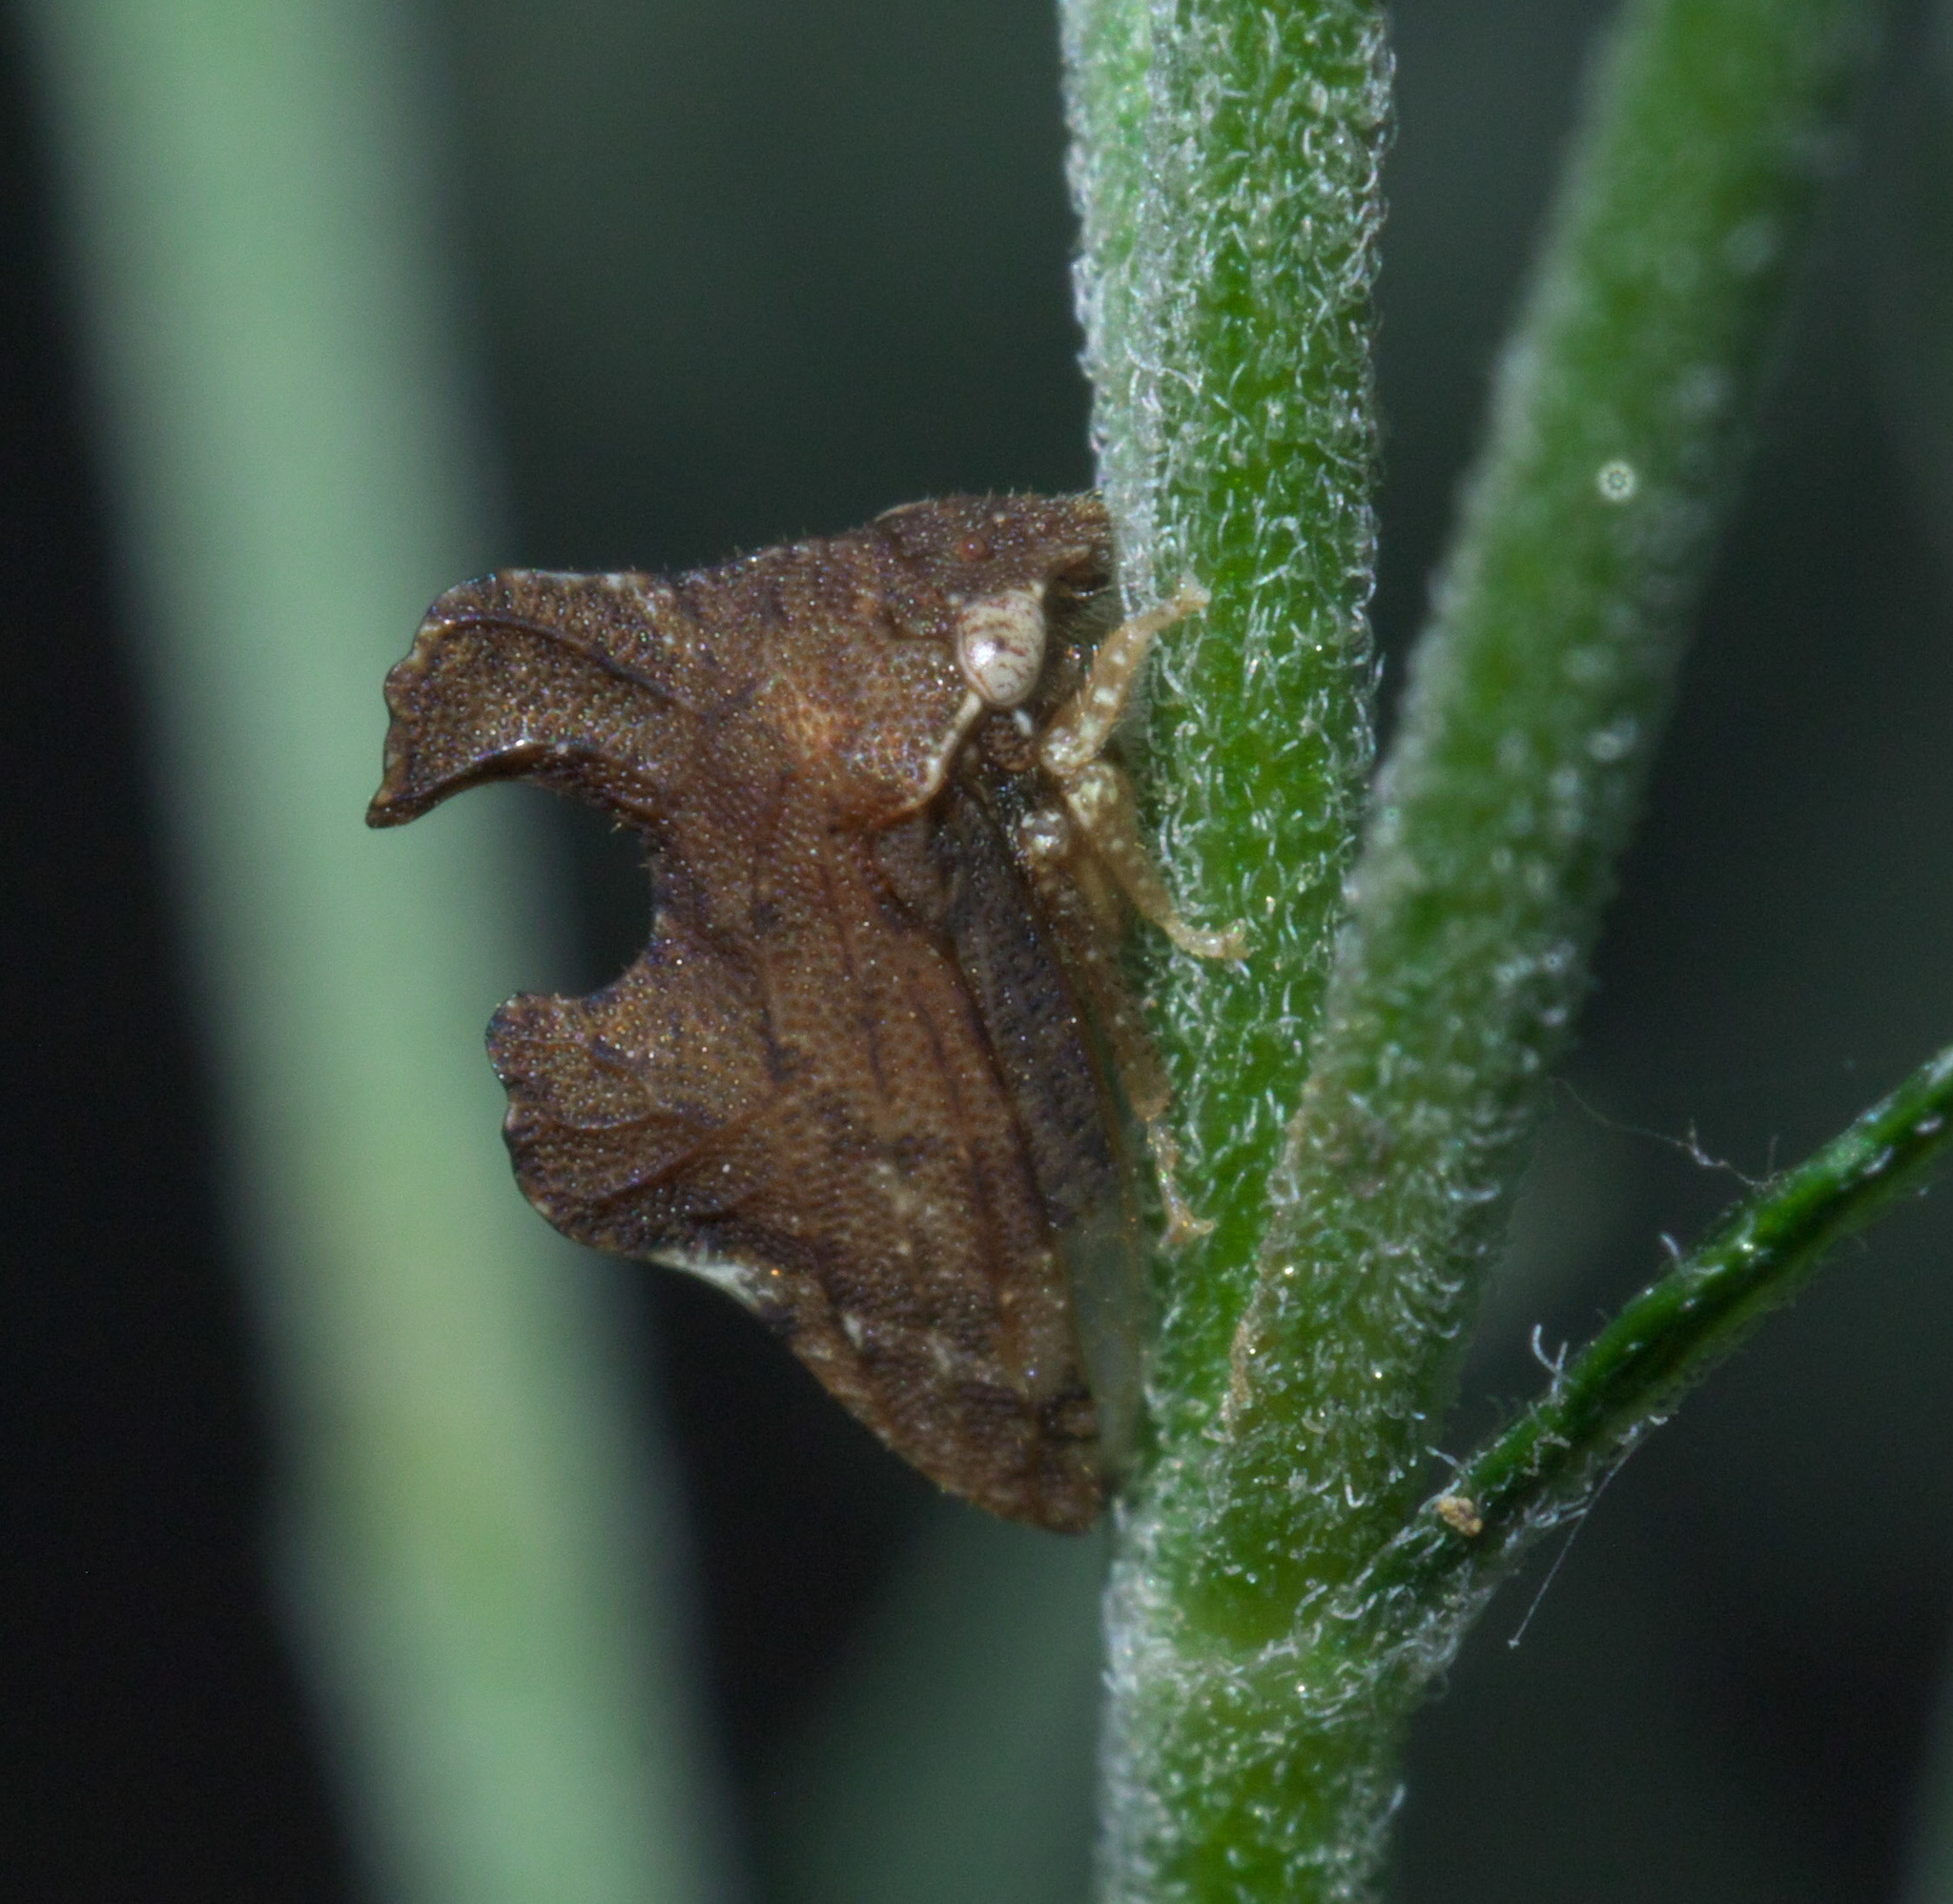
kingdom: Animalia
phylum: Arthropoda
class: Insecta
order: Hemiptera
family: Membracidae
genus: Entylia
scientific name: Entylia carinata
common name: Keeled treehopper
